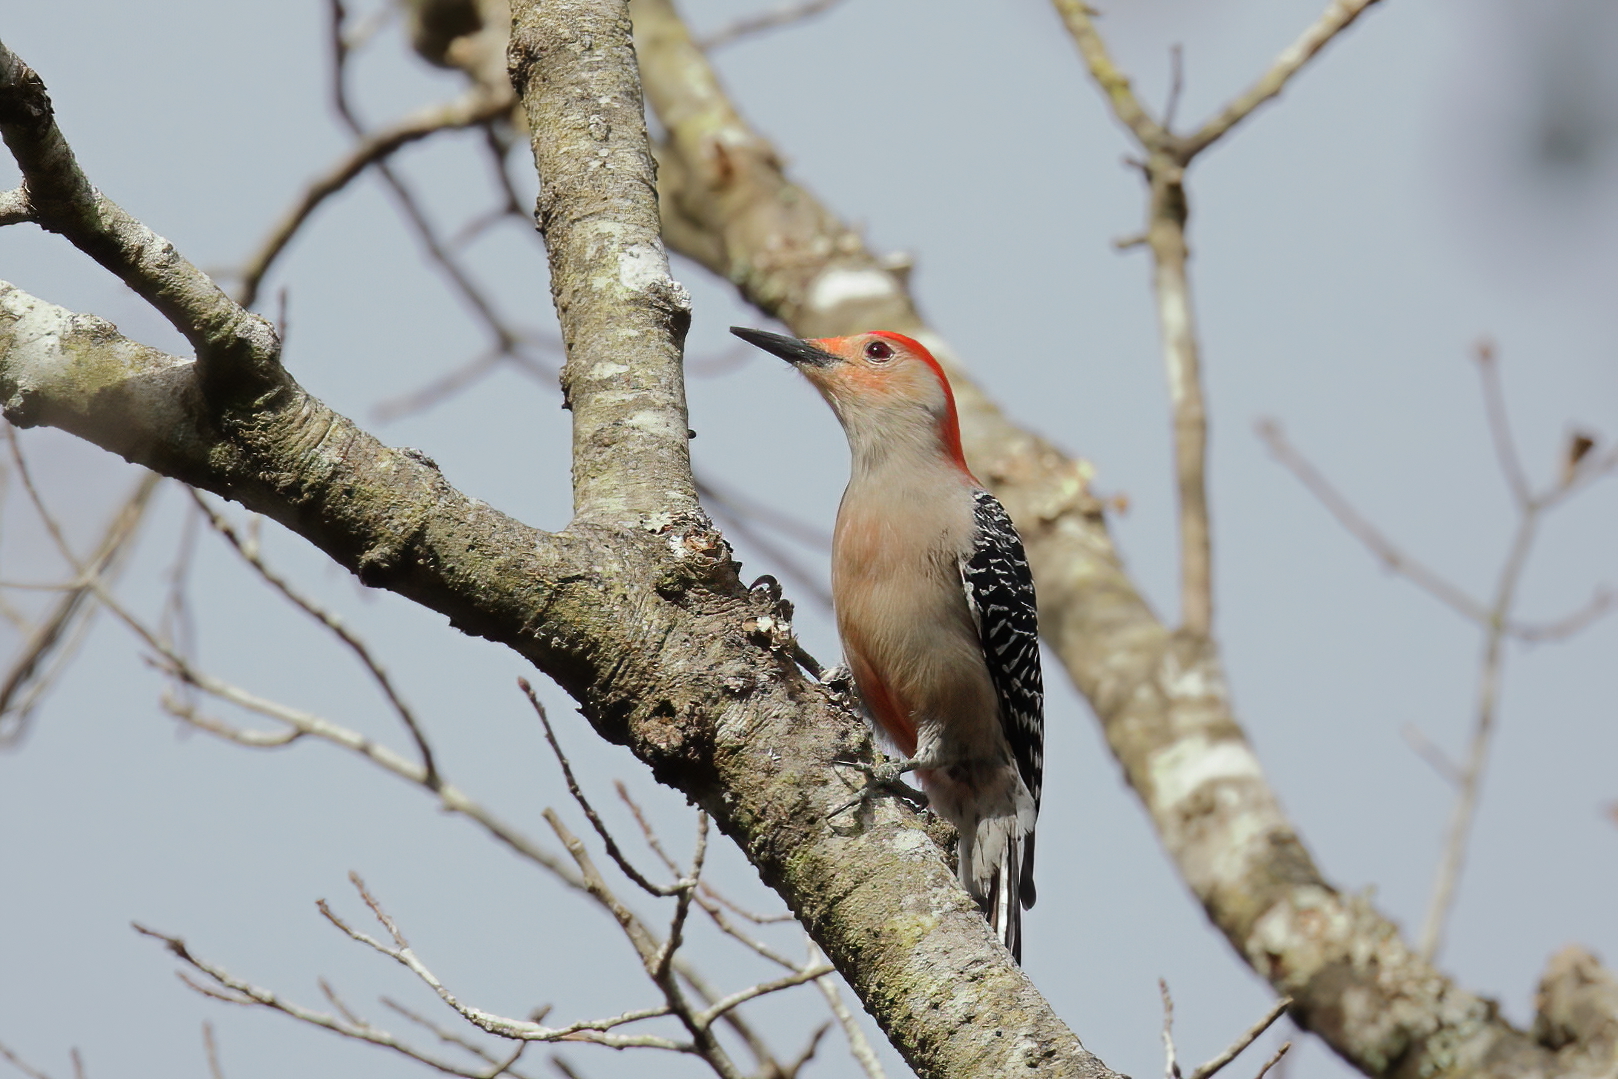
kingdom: Animalia
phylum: Chordata
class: Aves
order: Piciformes
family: Picidae
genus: Melanerpes
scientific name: Melanerpes carolinus
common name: Red-bellied woodpecker
